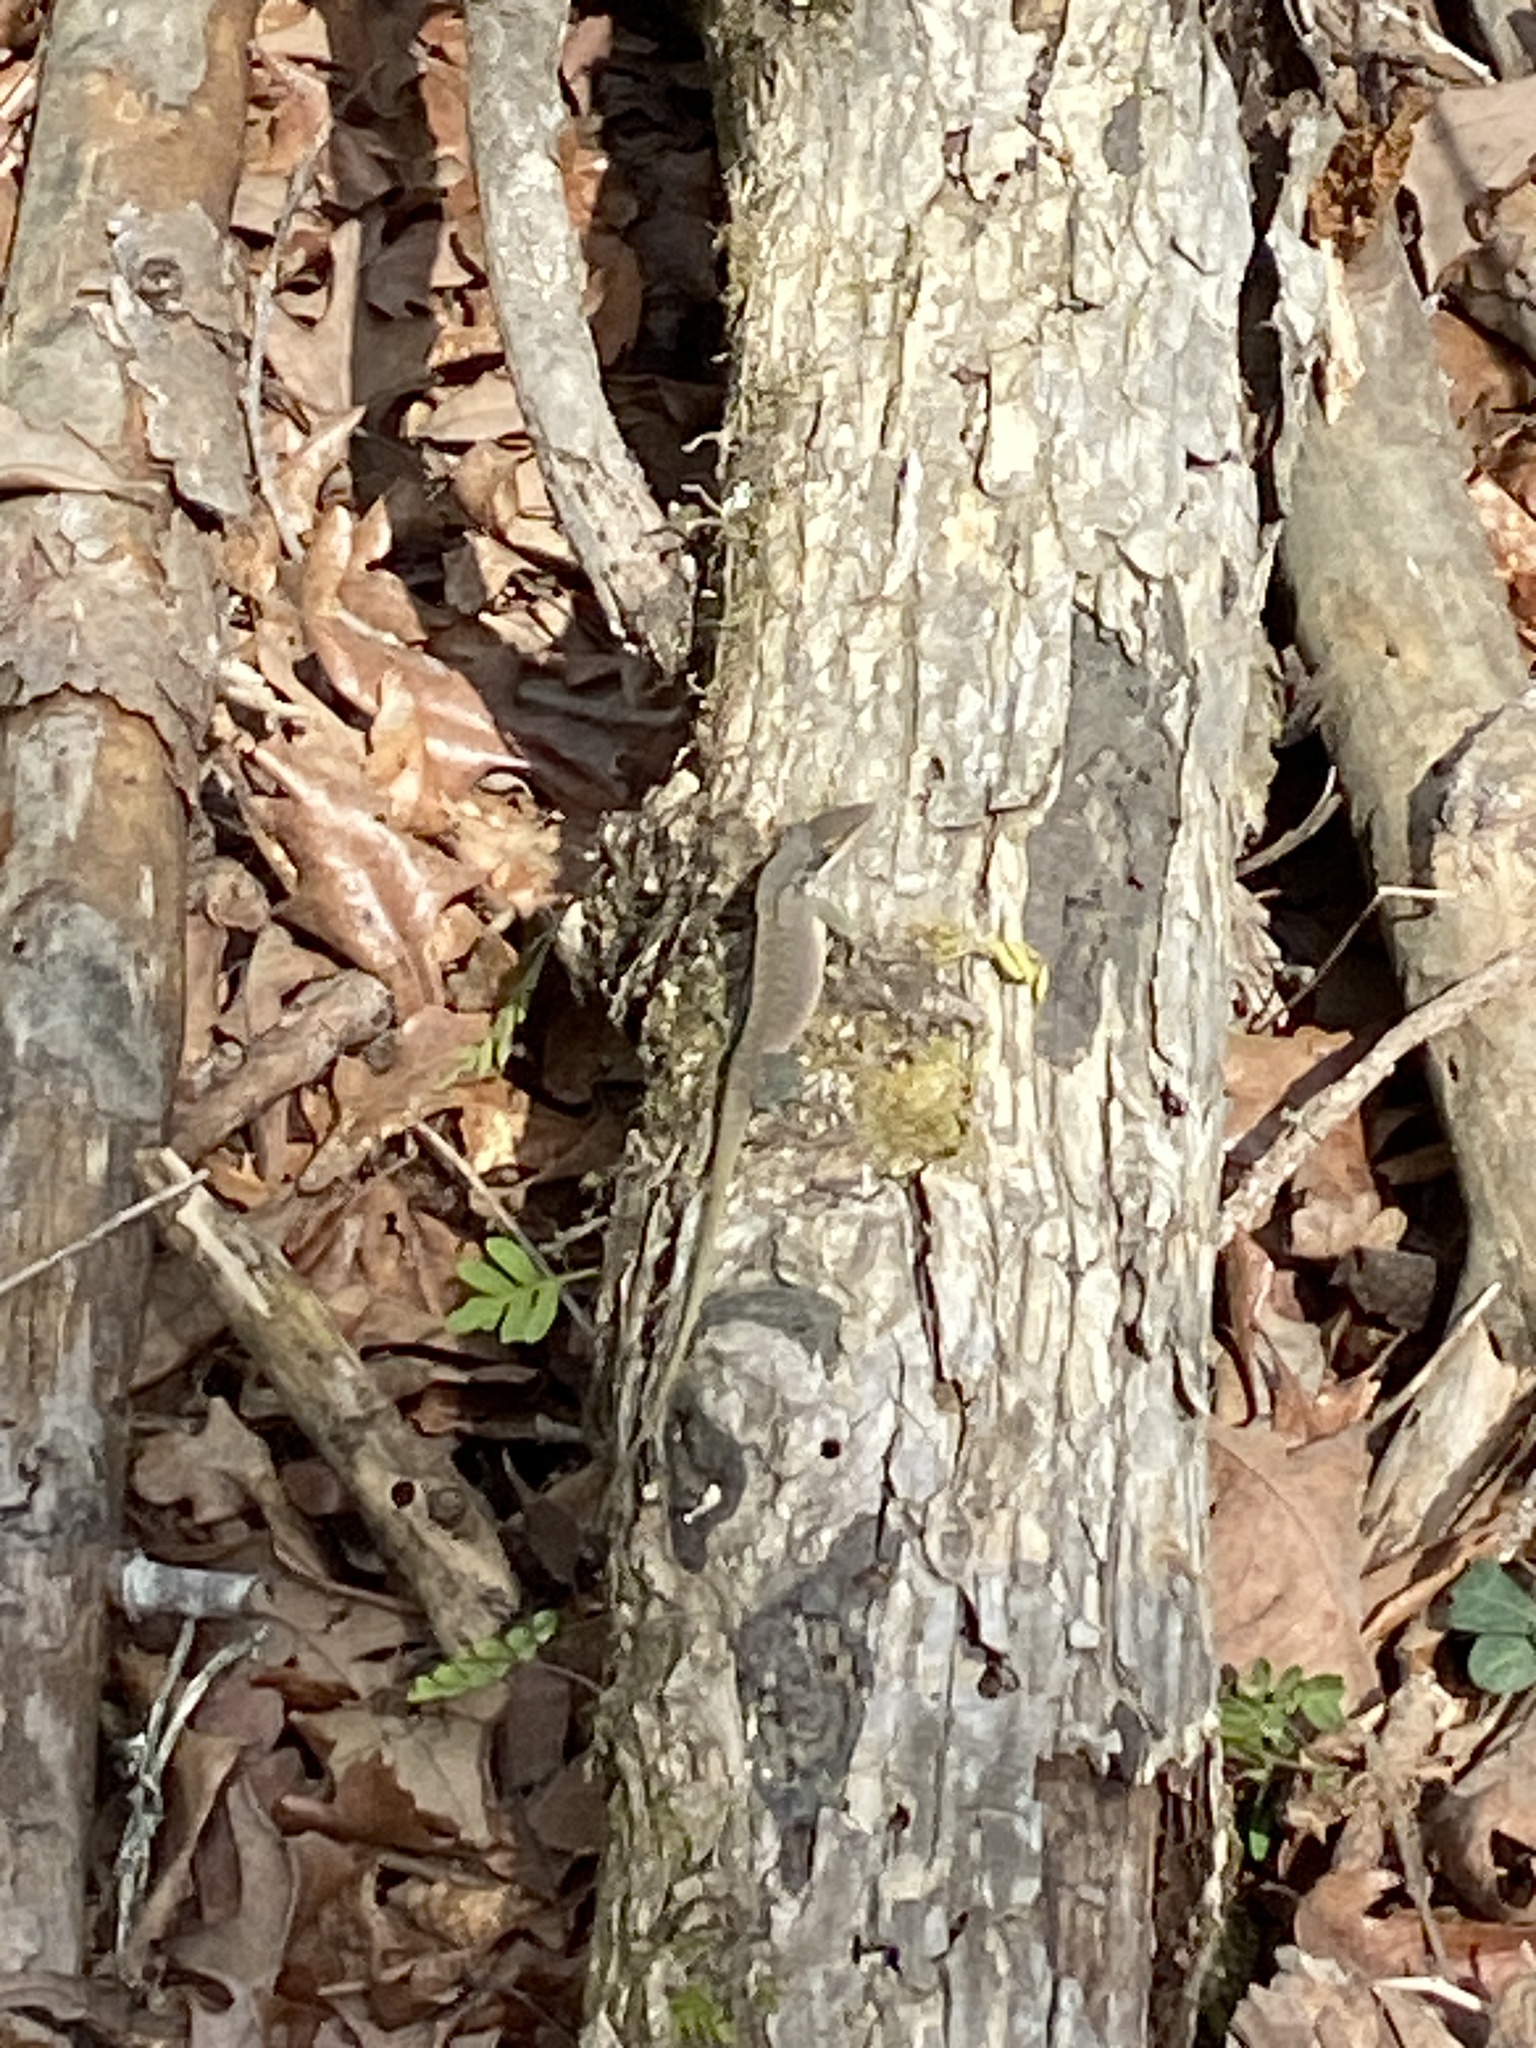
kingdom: Animalia
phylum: Chordata
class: Squamata
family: Dactyloidae
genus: Anolis
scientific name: Anolis carolinensis
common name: Green anole
